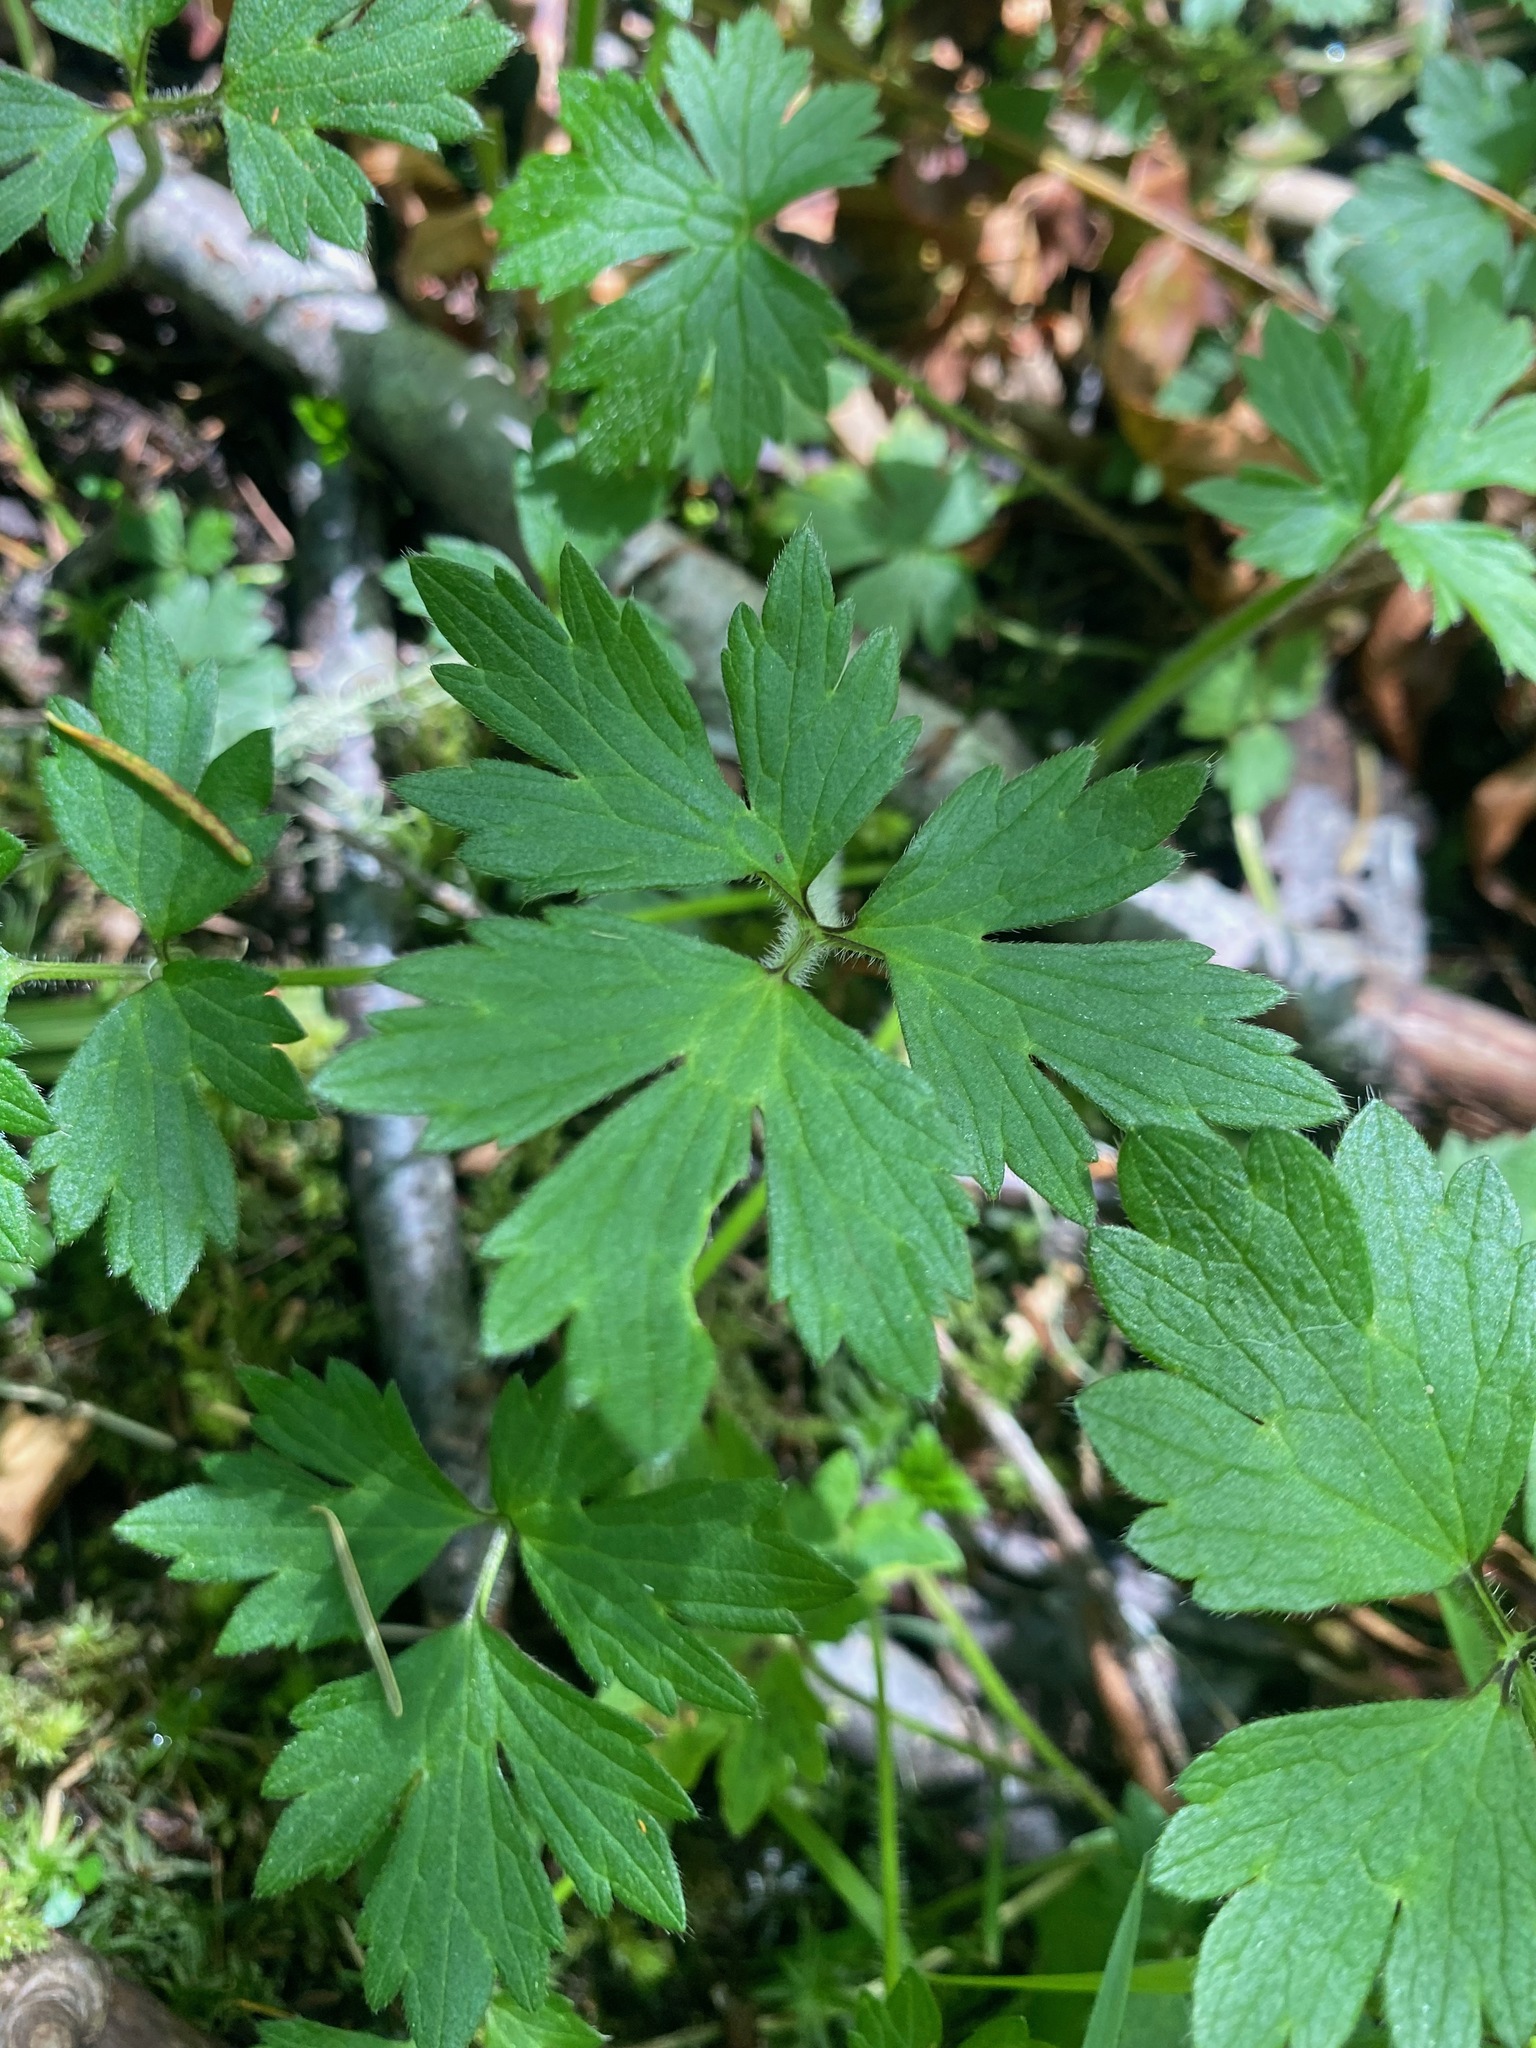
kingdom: Plantae
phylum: Tracheophyta
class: Magnoliopsida
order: Ranunculales
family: Ranunculaceae
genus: Ranunculus
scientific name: Ranunculus repens
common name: Creeping buttercup
